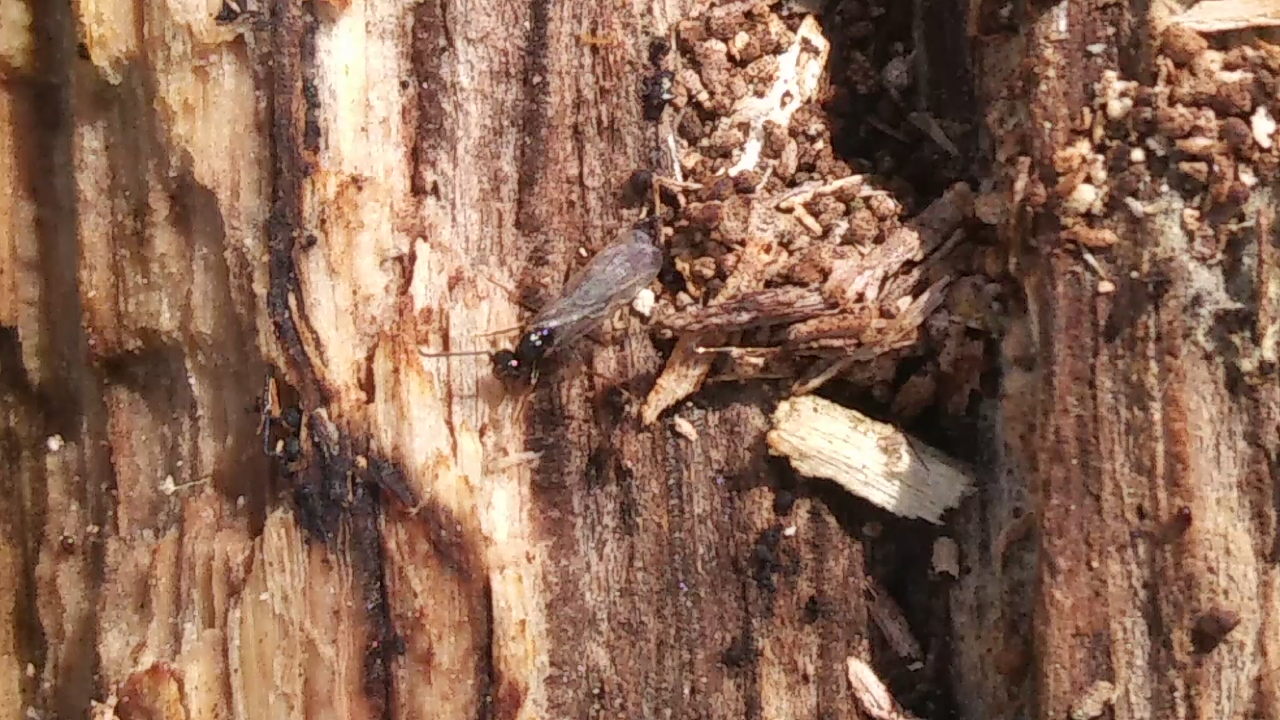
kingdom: Animalia
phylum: Arthropoda
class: Insecta
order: Hymenoptera
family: Formicidae
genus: Prenolepis
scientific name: Prenolepis imparis
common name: Small honey ant
